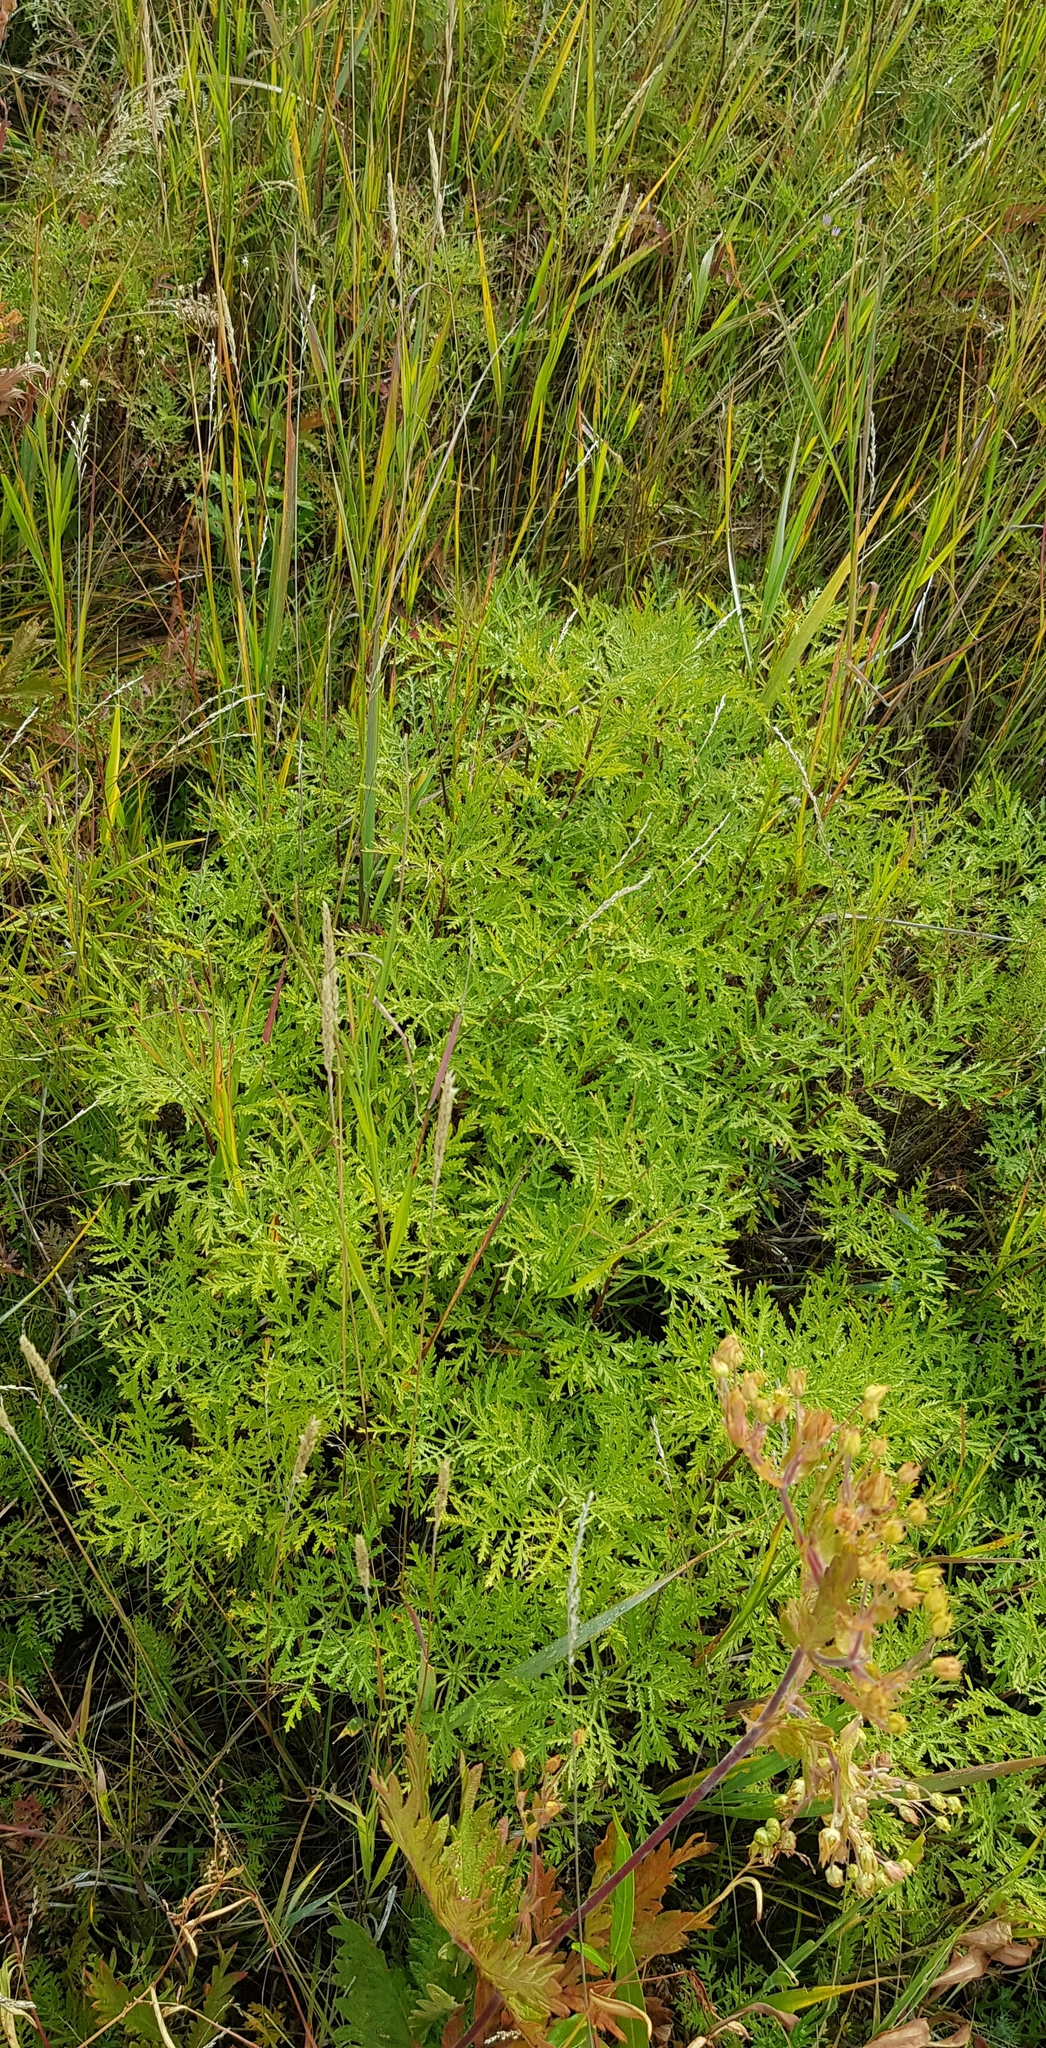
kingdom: Plantae
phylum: Tracheophyta
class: Magnoliopsida
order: Asterales
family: Asteraceae
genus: Artemisia
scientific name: Artemisia gmelinii
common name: Gmelin's wormwood
